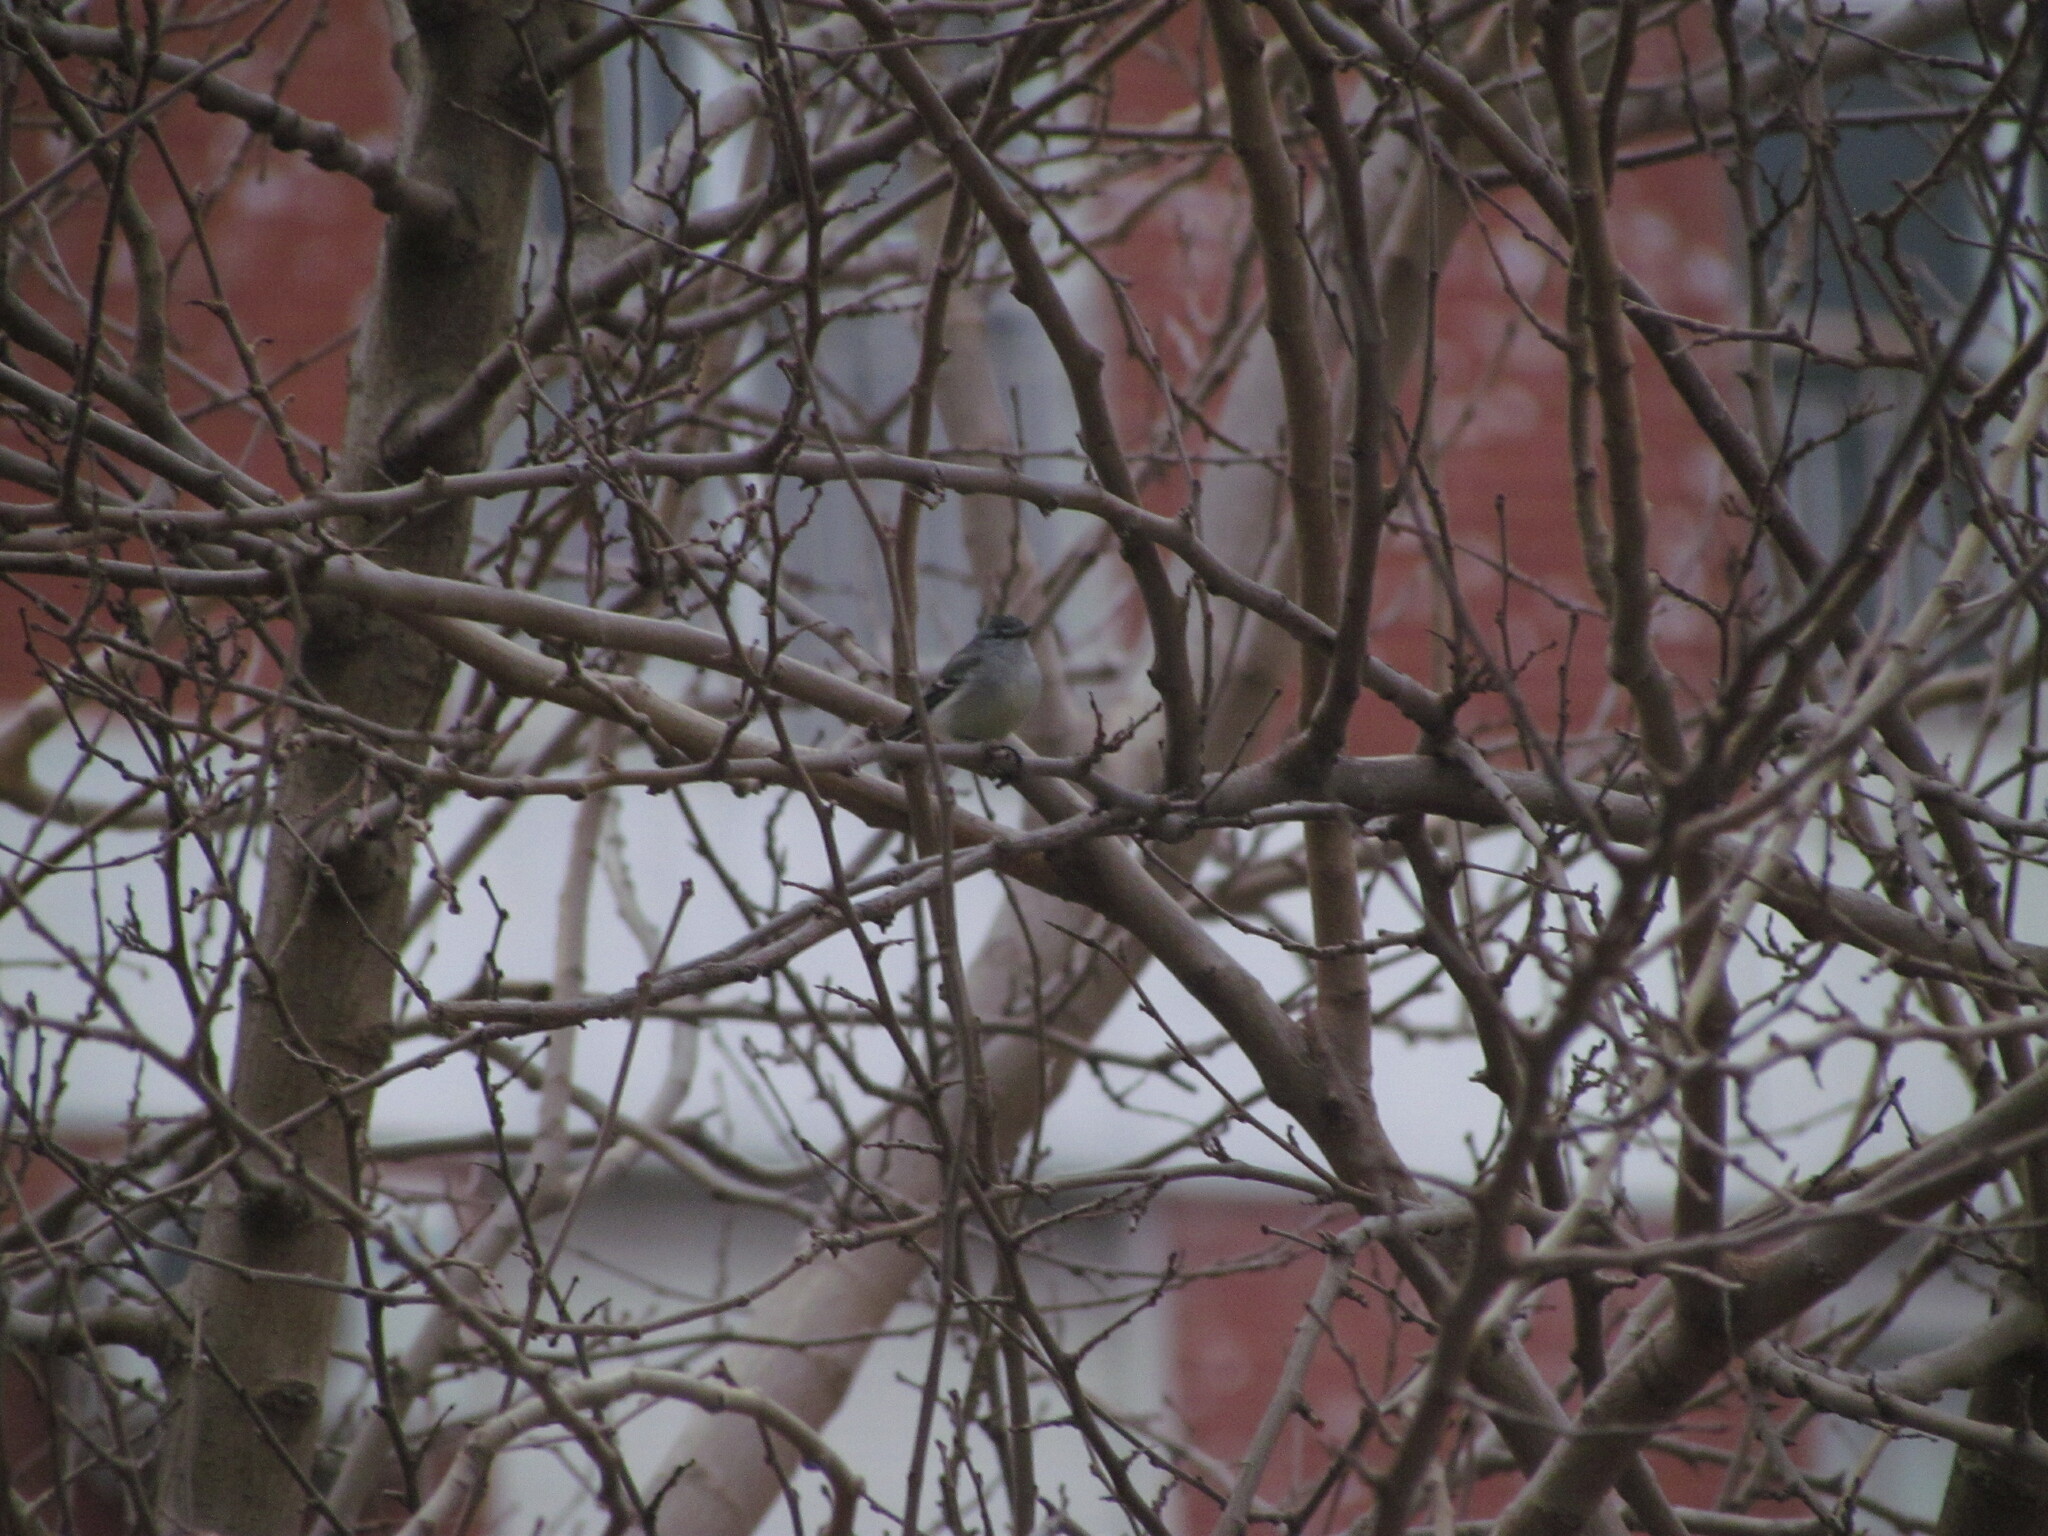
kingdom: Animalia
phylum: Chordata
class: Aves
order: Passeriformes
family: Tyrannidae
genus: Serpophaga
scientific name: Serpophaga subcristata
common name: White-crested tyrannulet
